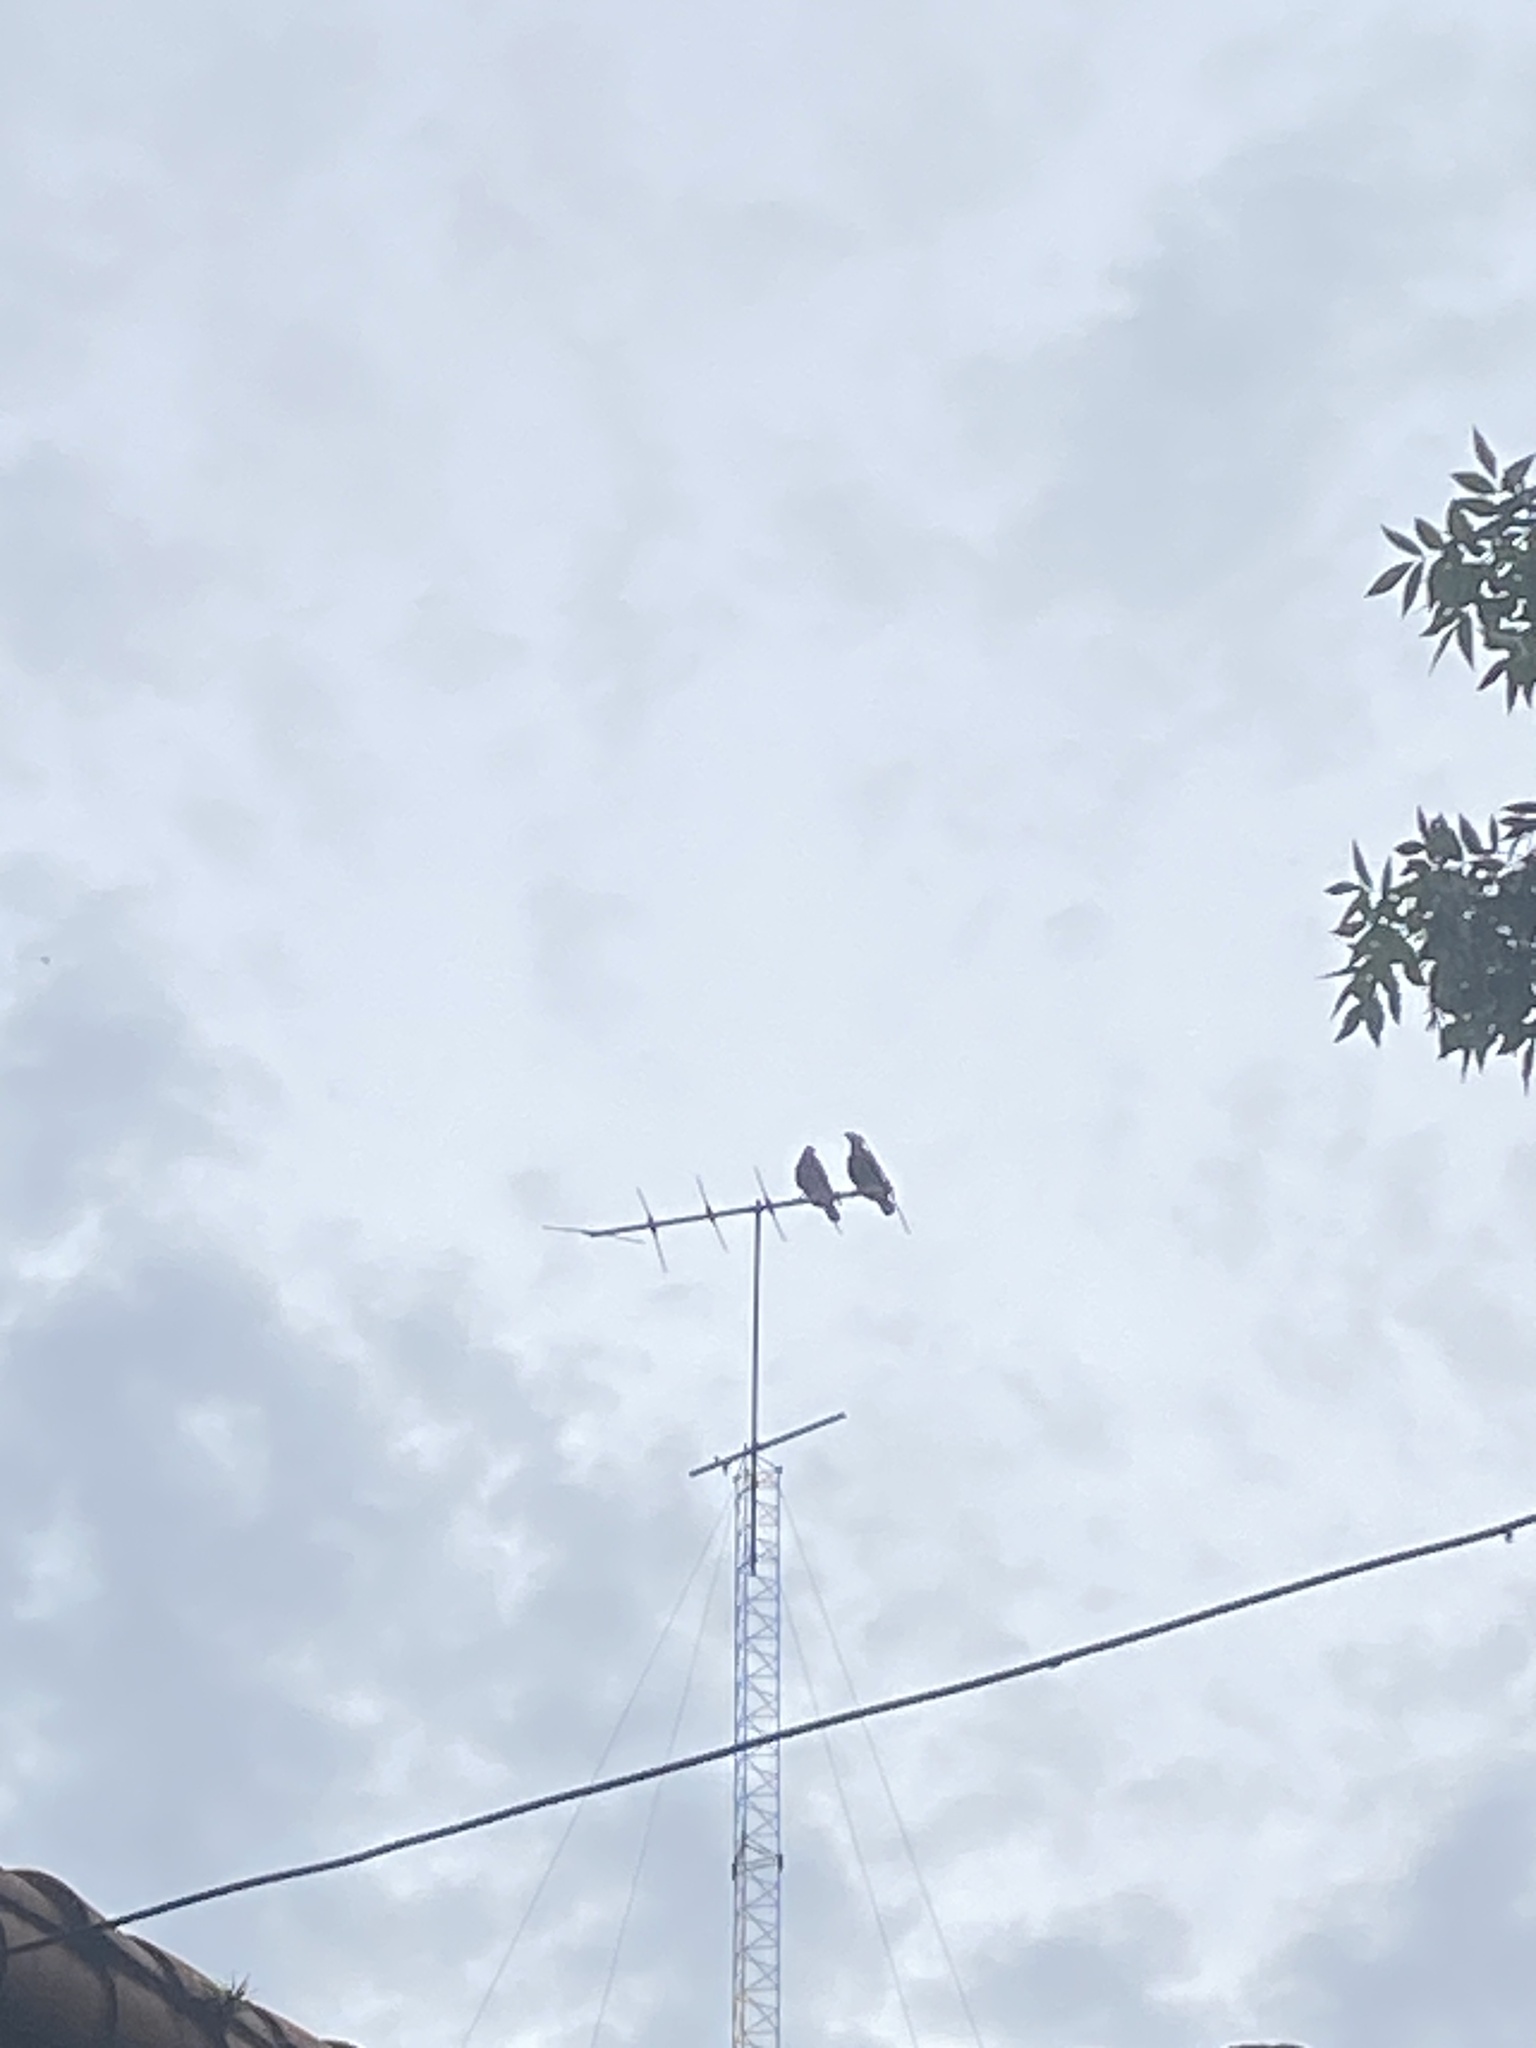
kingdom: Animalia
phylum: Chordata
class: Aves
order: Falconiformes
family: Falconidae
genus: Caracara
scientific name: Caracara plancus
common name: Southern caracara
